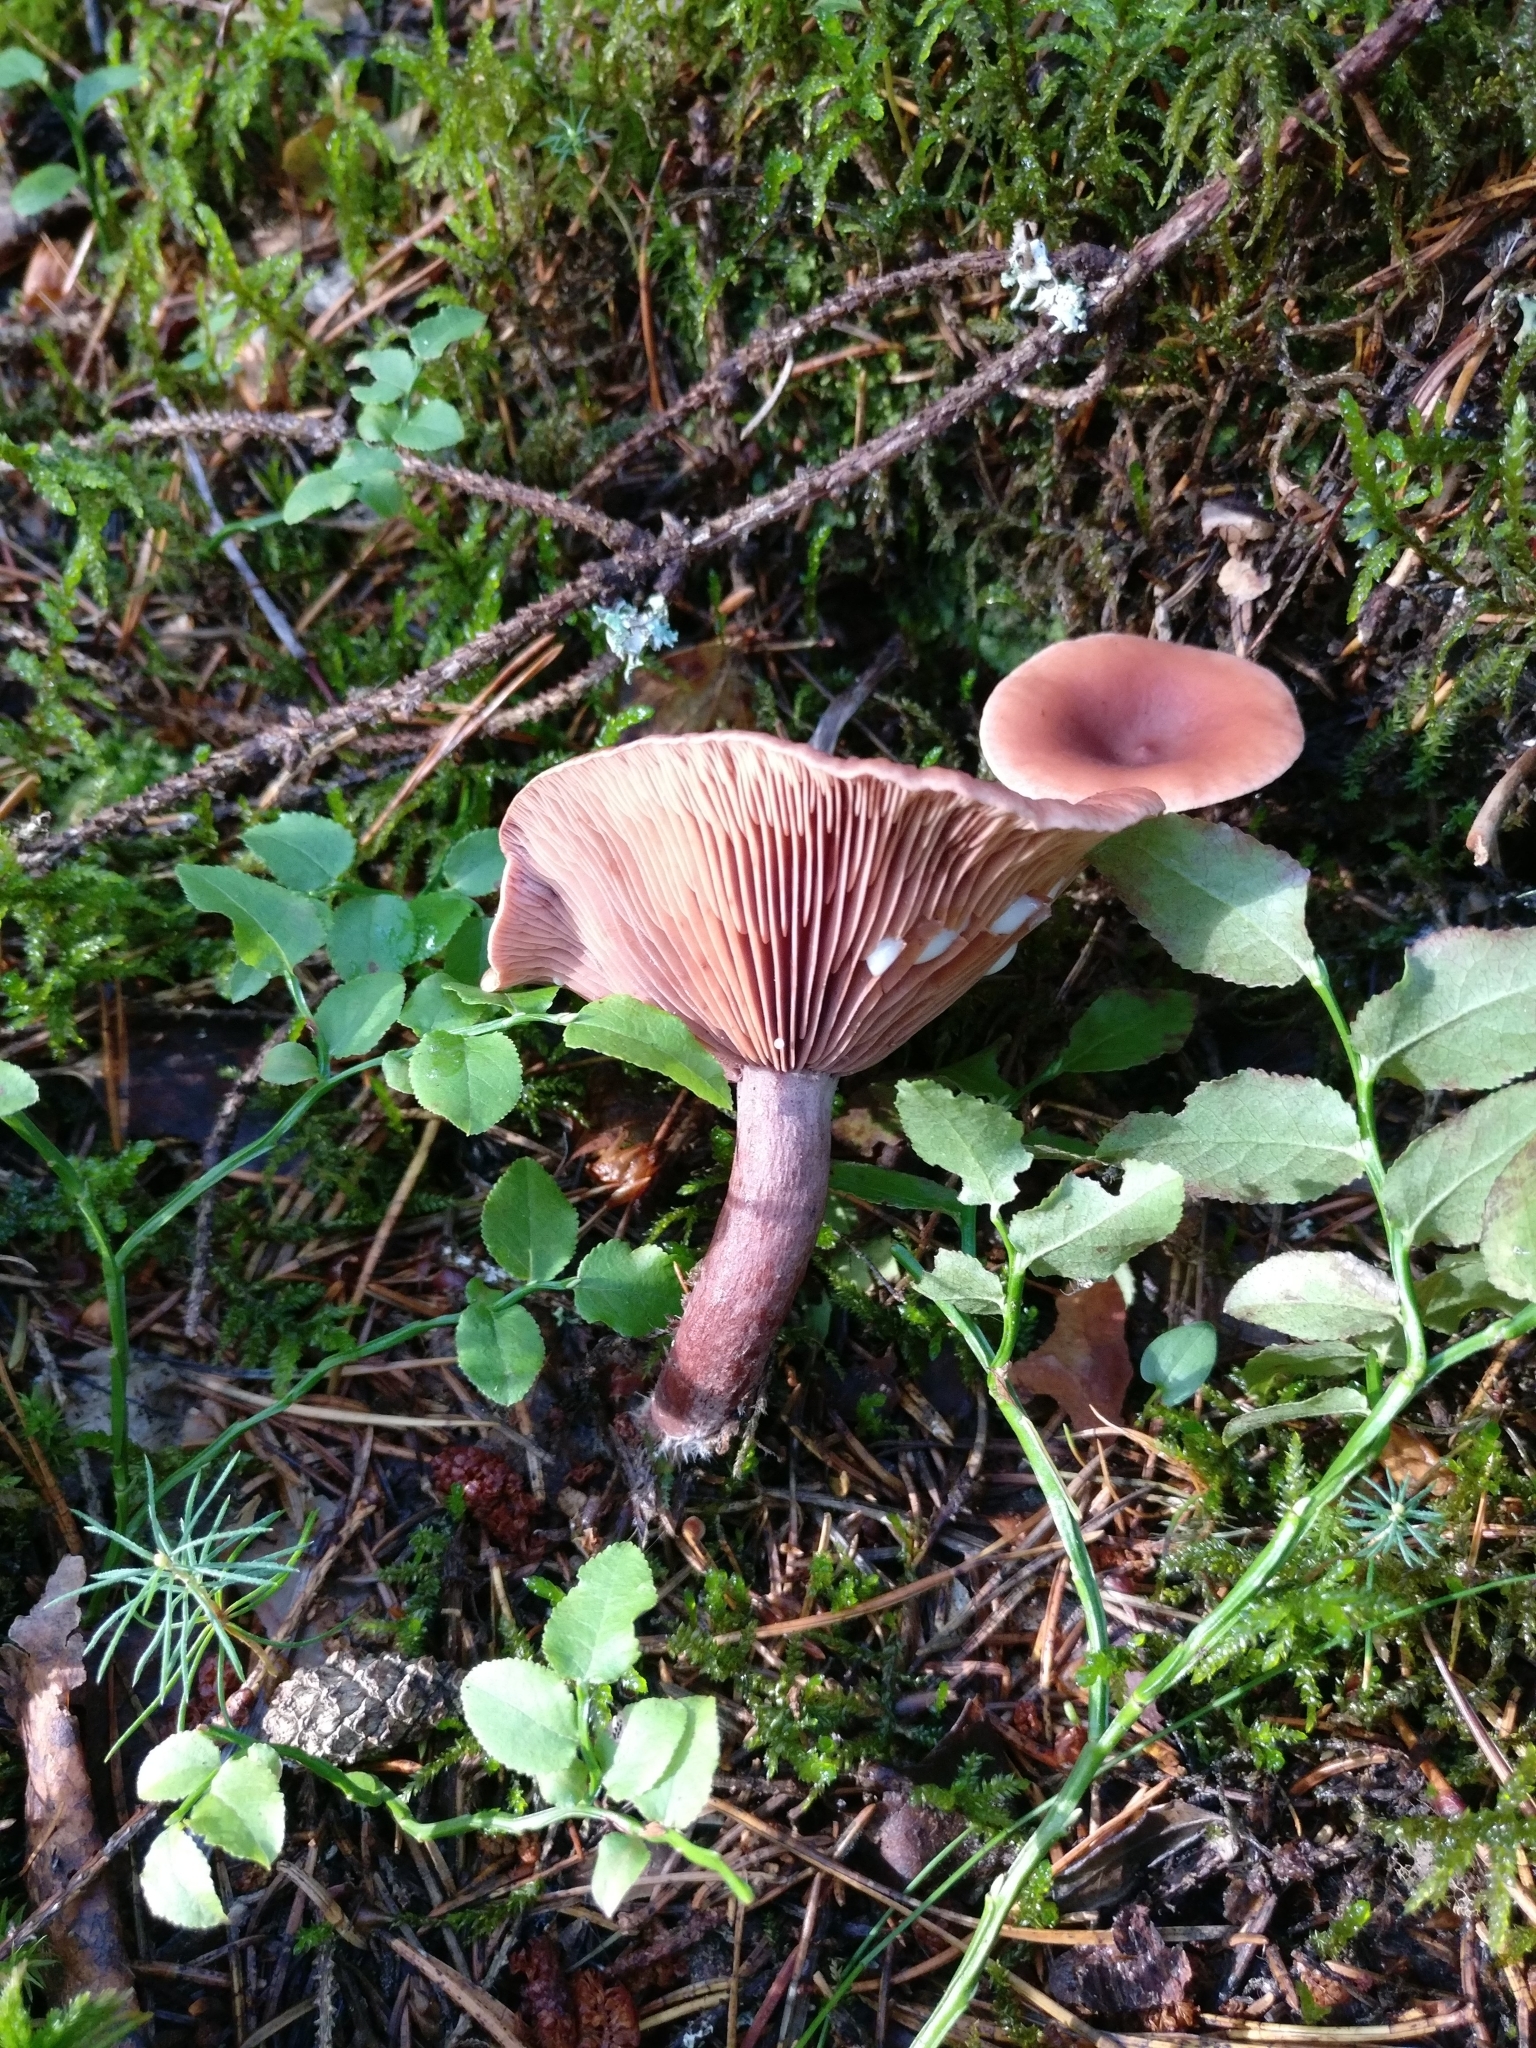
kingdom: Fungi
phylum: Basidiomycota
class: Agaricomycetes
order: Russulales
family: Russulaceae
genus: Lactarius
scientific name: Lactarius camphoratus
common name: Curry milkcap
